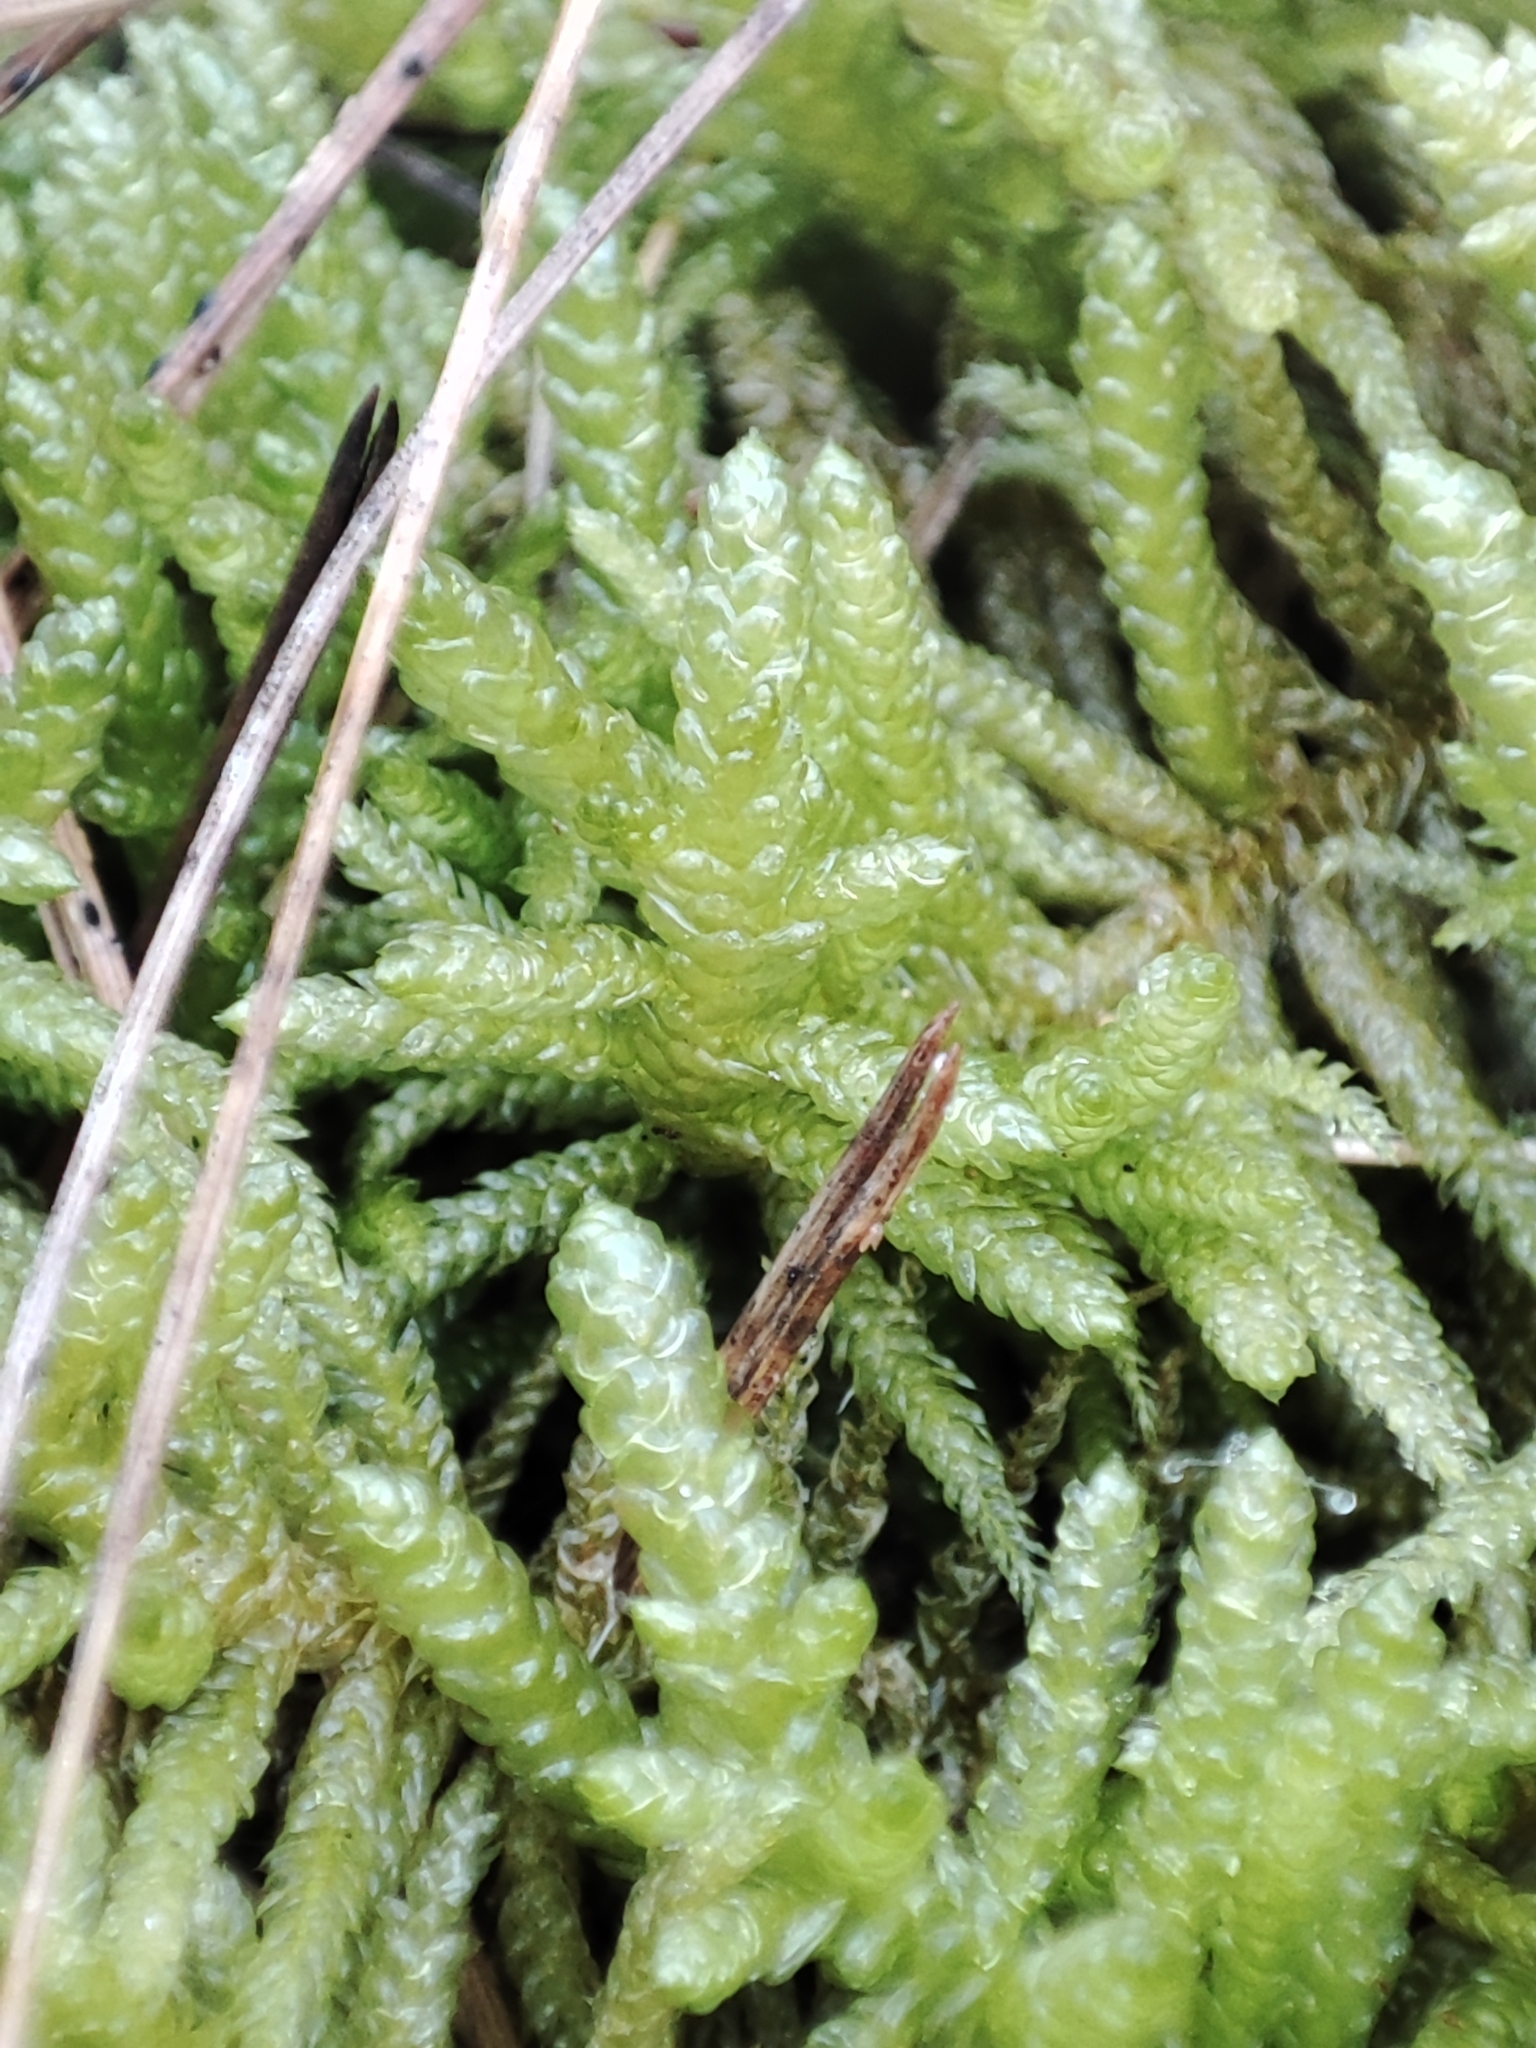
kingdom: Plantae
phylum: Bryophyta
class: Bryopsida
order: Hypnales
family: Brachytheciaceae
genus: Pseudoscleropodium
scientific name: Pseudoscleropodium purum
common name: Neat feather-moss
